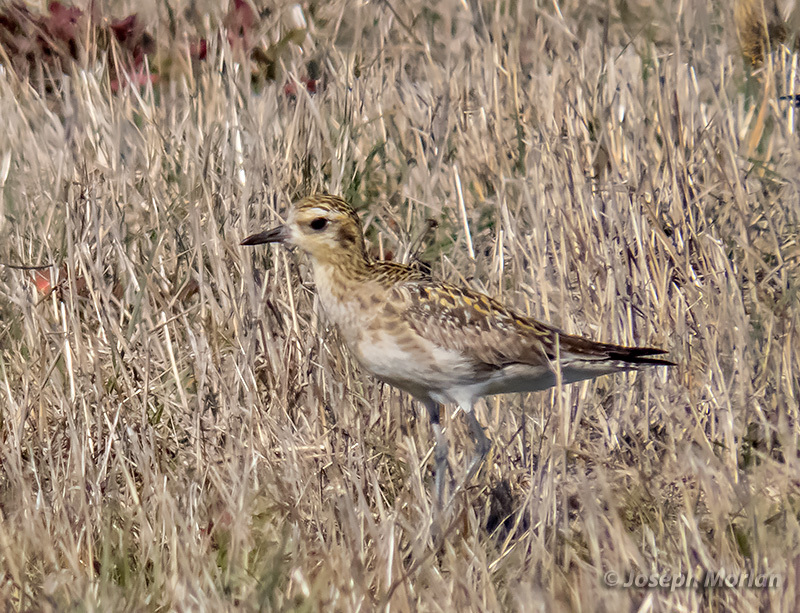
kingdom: Animalia
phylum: Chordata
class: Aves
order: Charadriiformes
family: Charadriidae
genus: Pluvialis
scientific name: Pluvialis fulva
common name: Pacific golden plover
